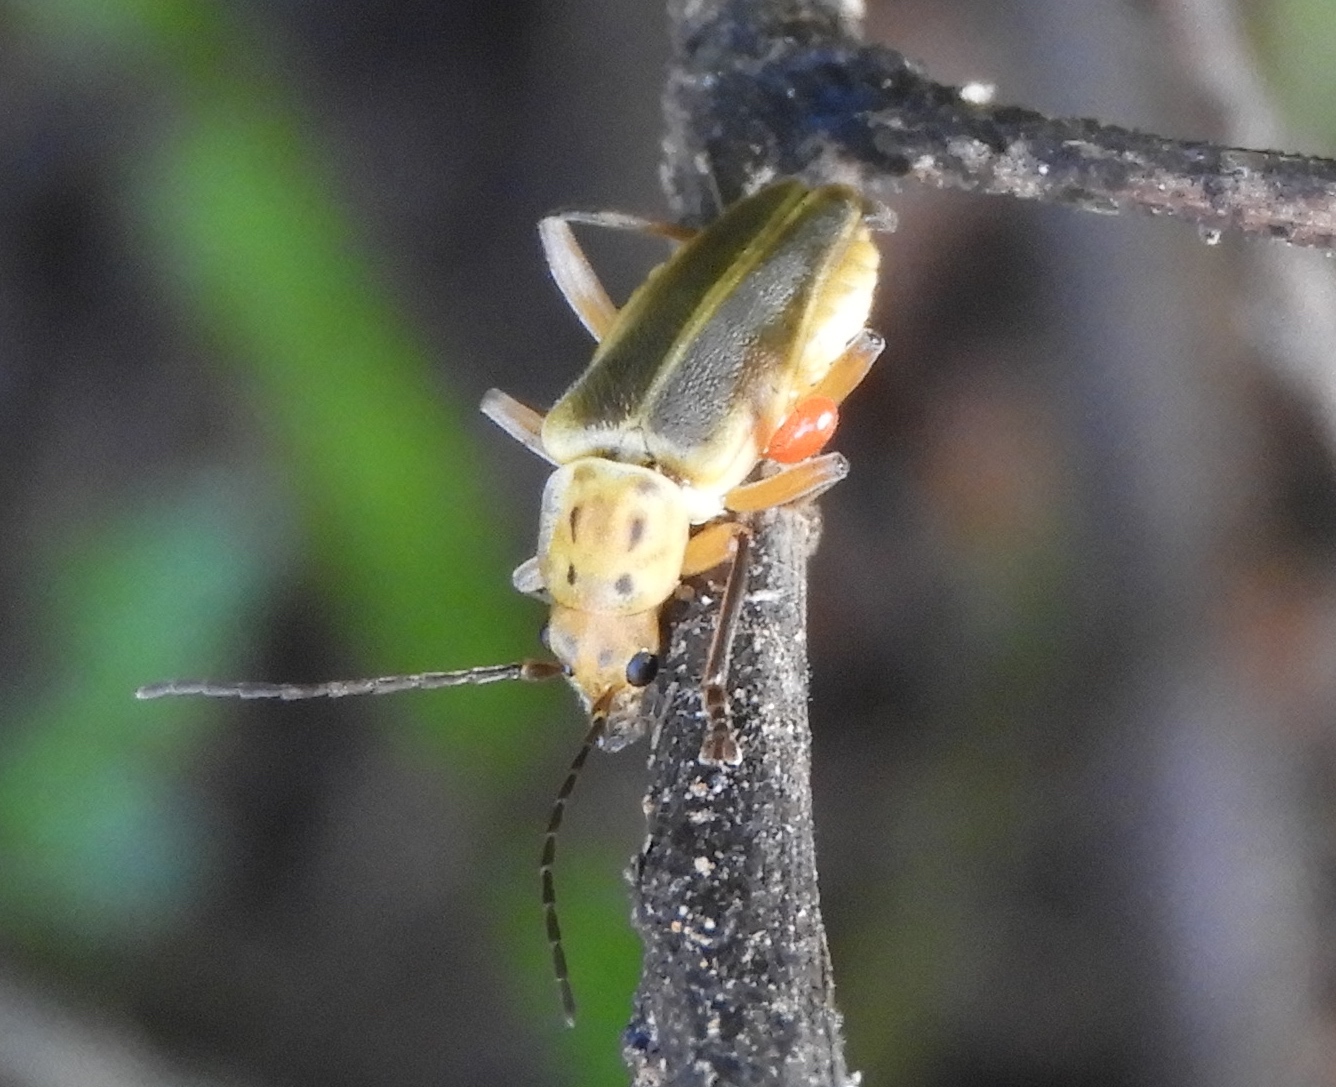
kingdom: Animalia
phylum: Arthropoda
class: Insecta
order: Coleoptera
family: Cantharidae
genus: Chauliognathus
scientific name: Chauliognathus
